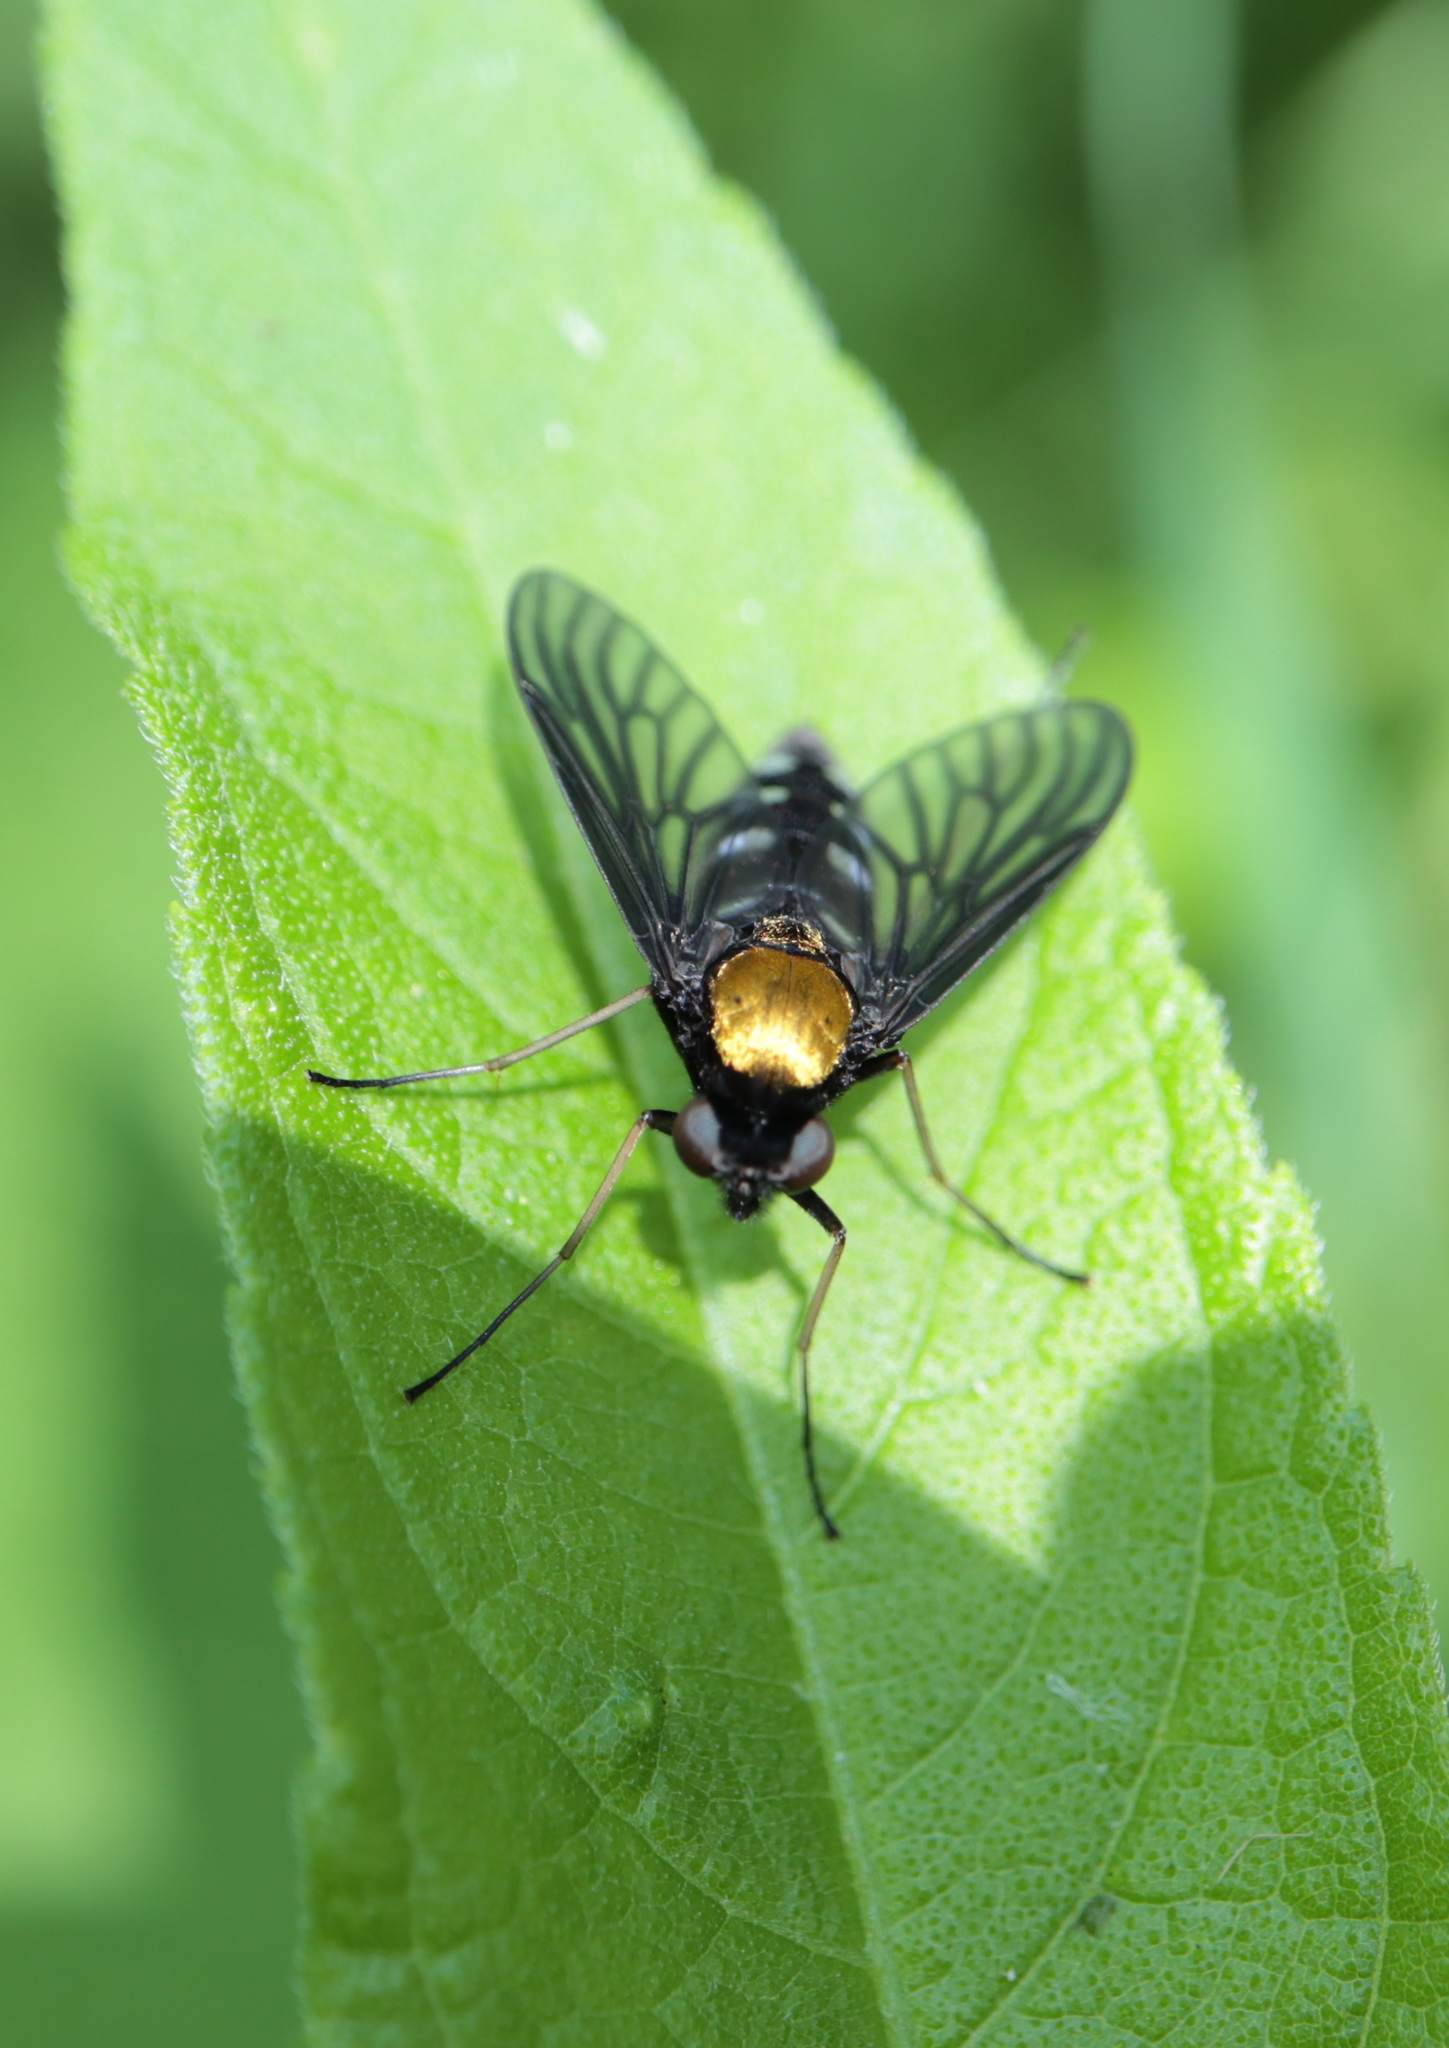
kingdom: Animalia
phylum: Arthropoda
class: Insecta
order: Diptera
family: Rhagionidae
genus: Chrysopilus
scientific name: Chrysopilus thoracicus
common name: Golden-backed snipe fly
